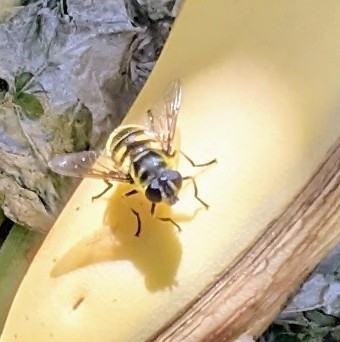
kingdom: Animalia
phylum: Arthropoda
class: Insecta
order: Diptera
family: Syrphidae
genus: Myathropa
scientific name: Myathropa florea
